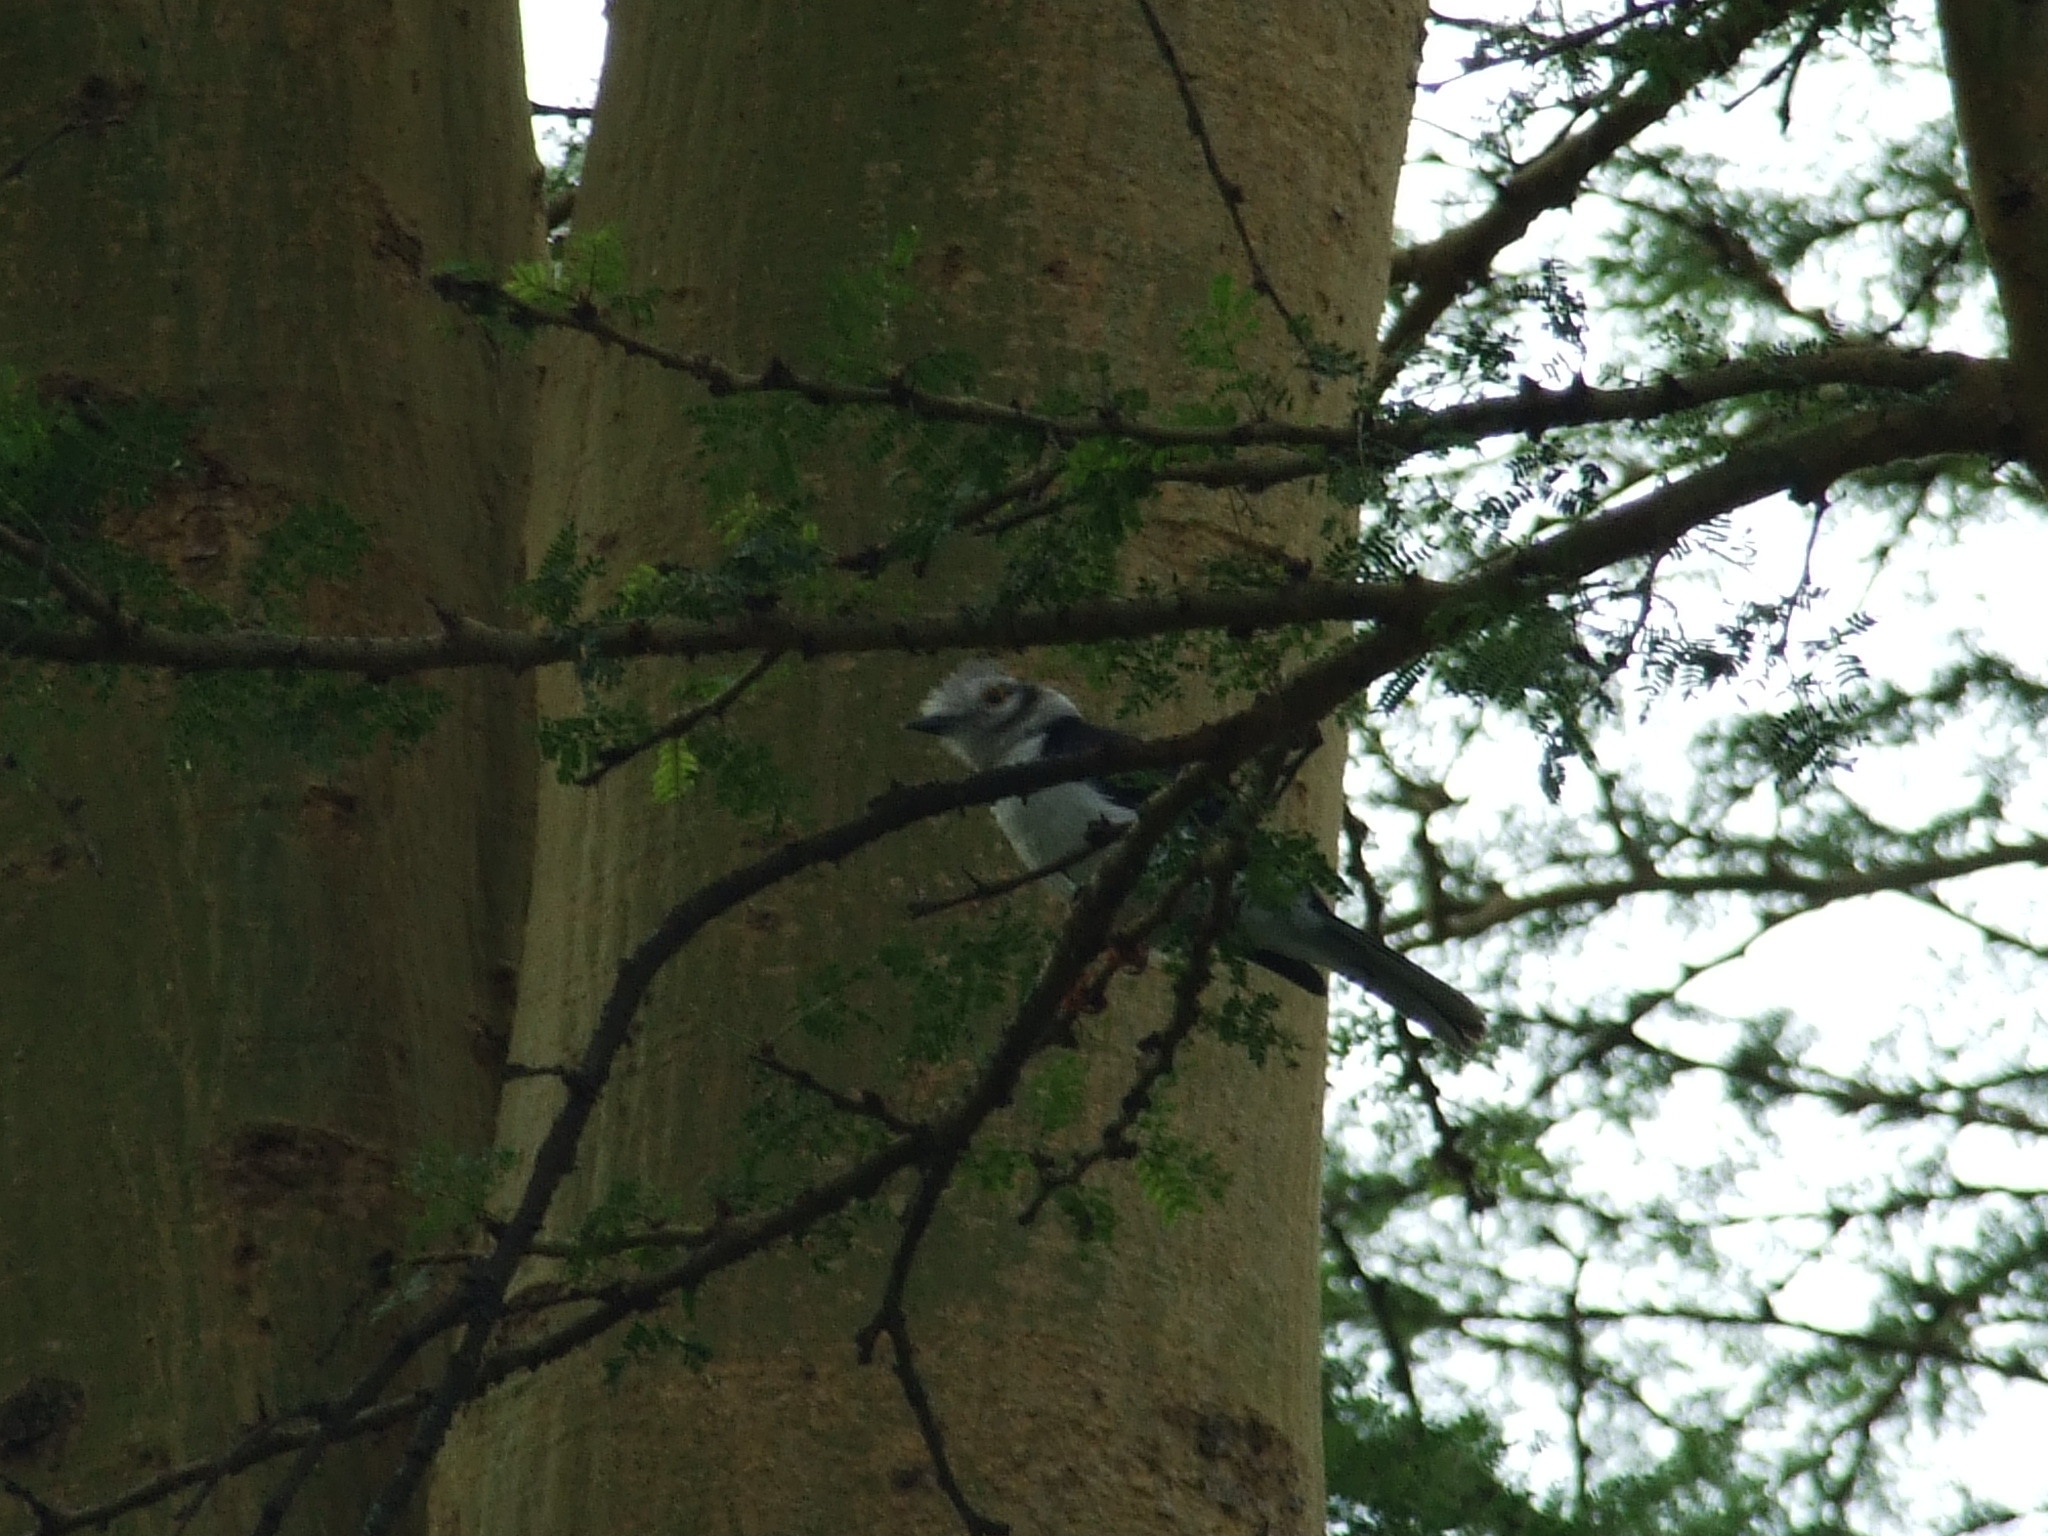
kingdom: Animalia
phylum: Chordata
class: Aves
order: Passeriformes
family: Prionopidae
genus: Prionops
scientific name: Prionops poliolophus
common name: Grey-crested helmetshrike
